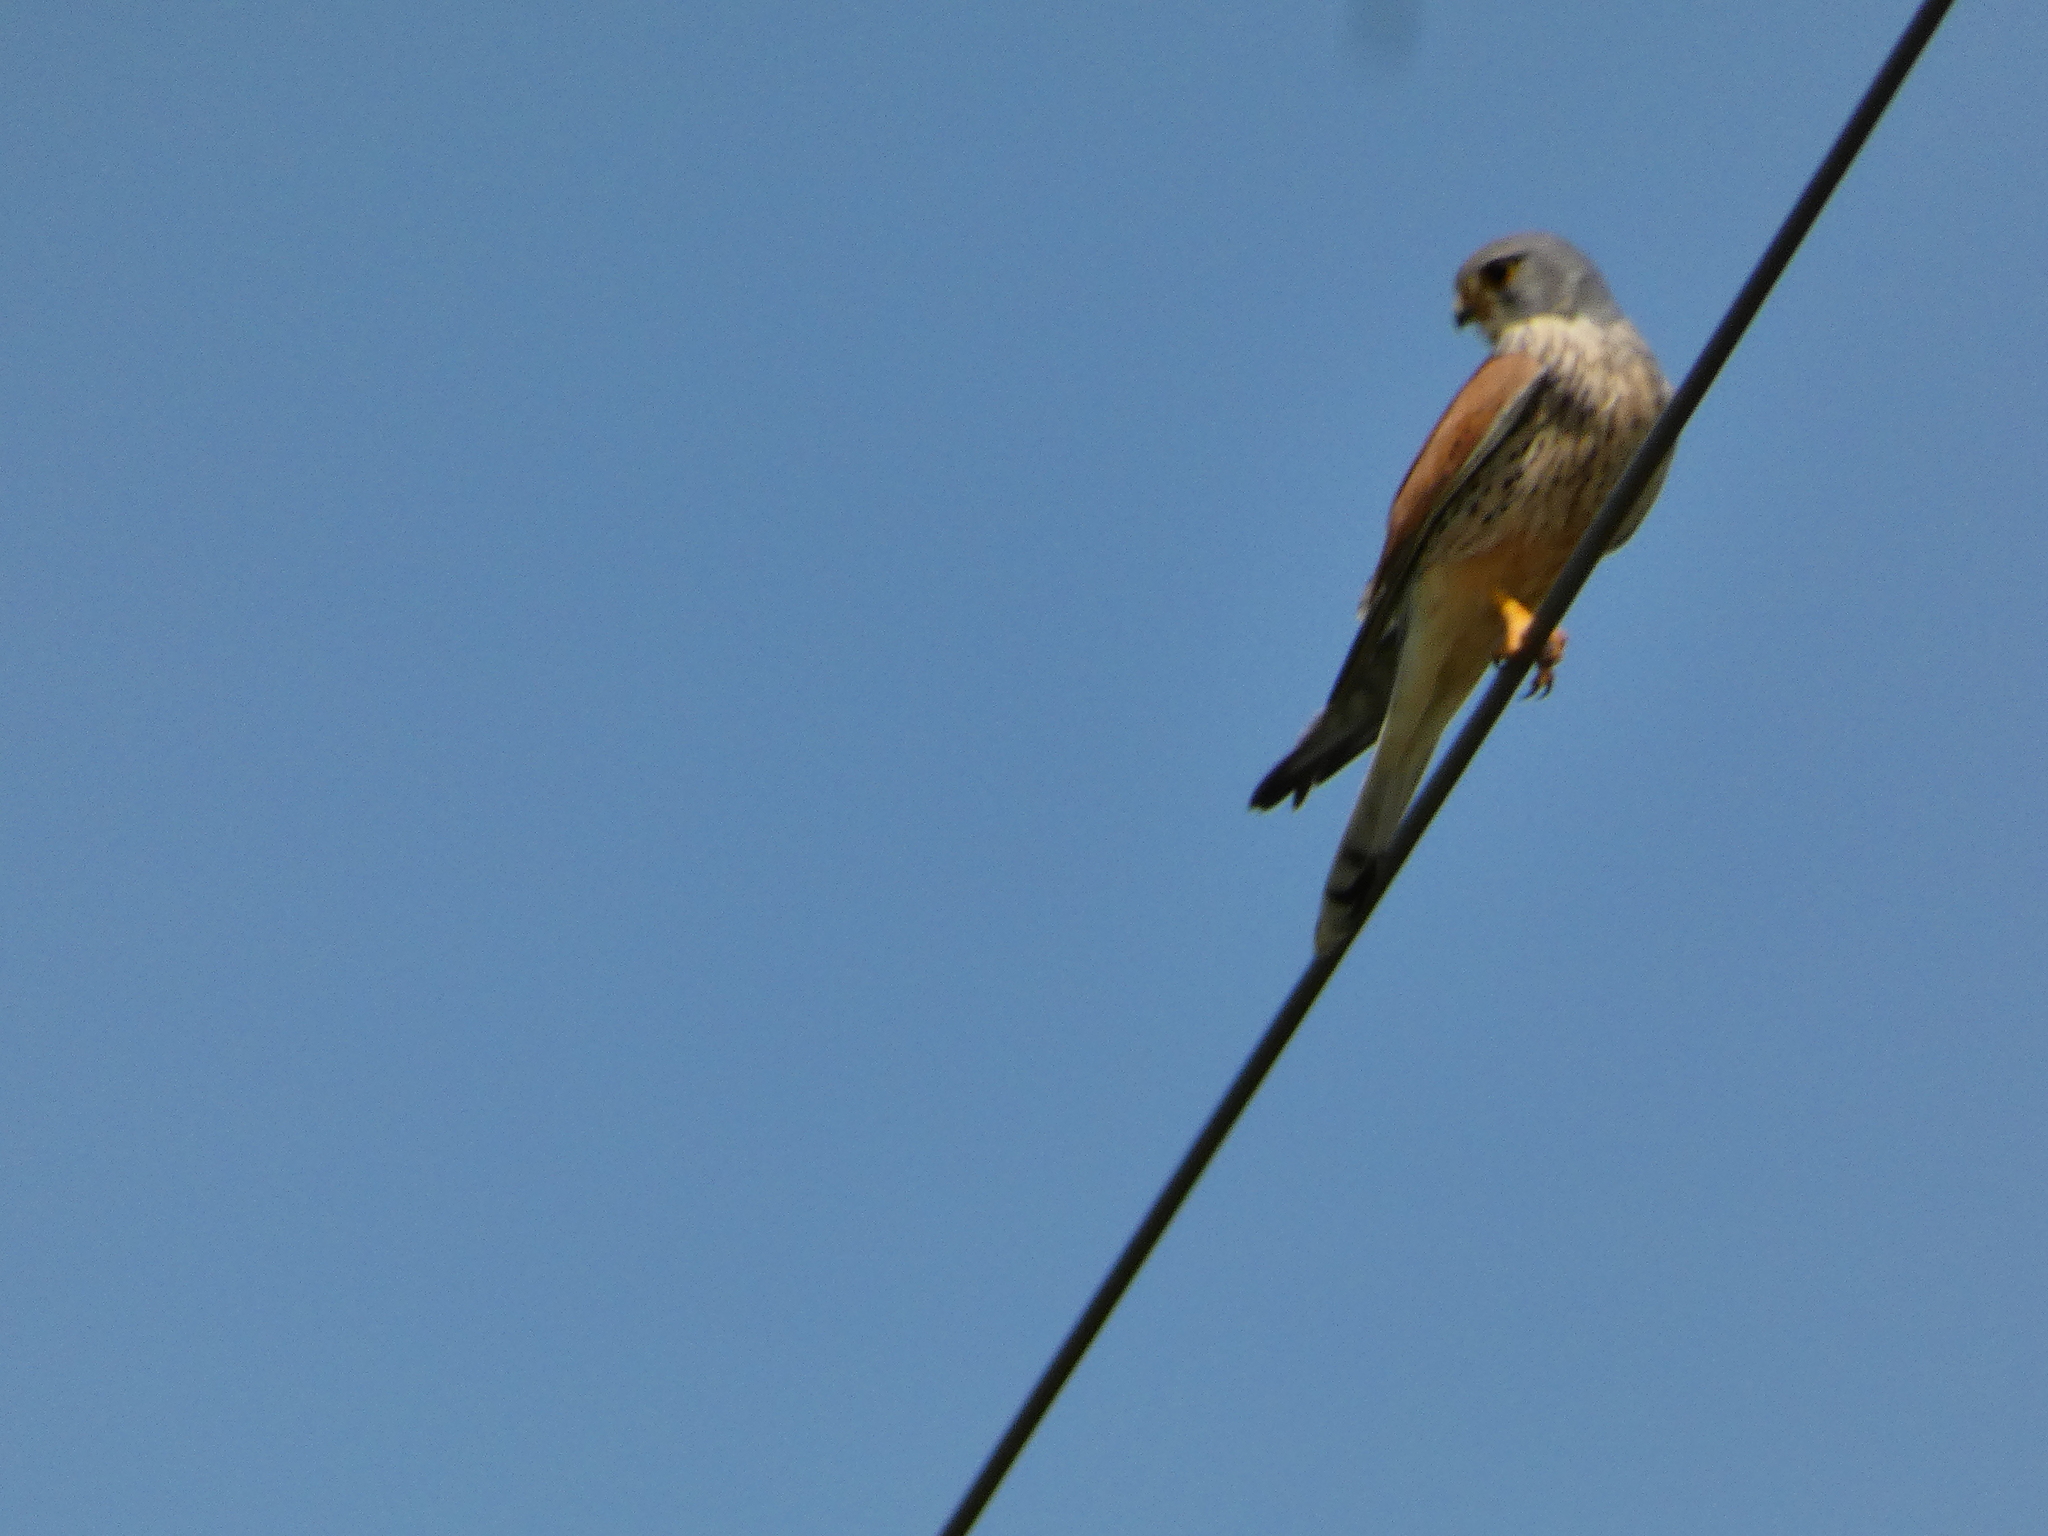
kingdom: Animalia
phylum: Chordata
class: Aves
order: Falconiformes
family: Falconidae
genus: Falco
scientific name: Falco tinnunculus
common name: Common kestrel
